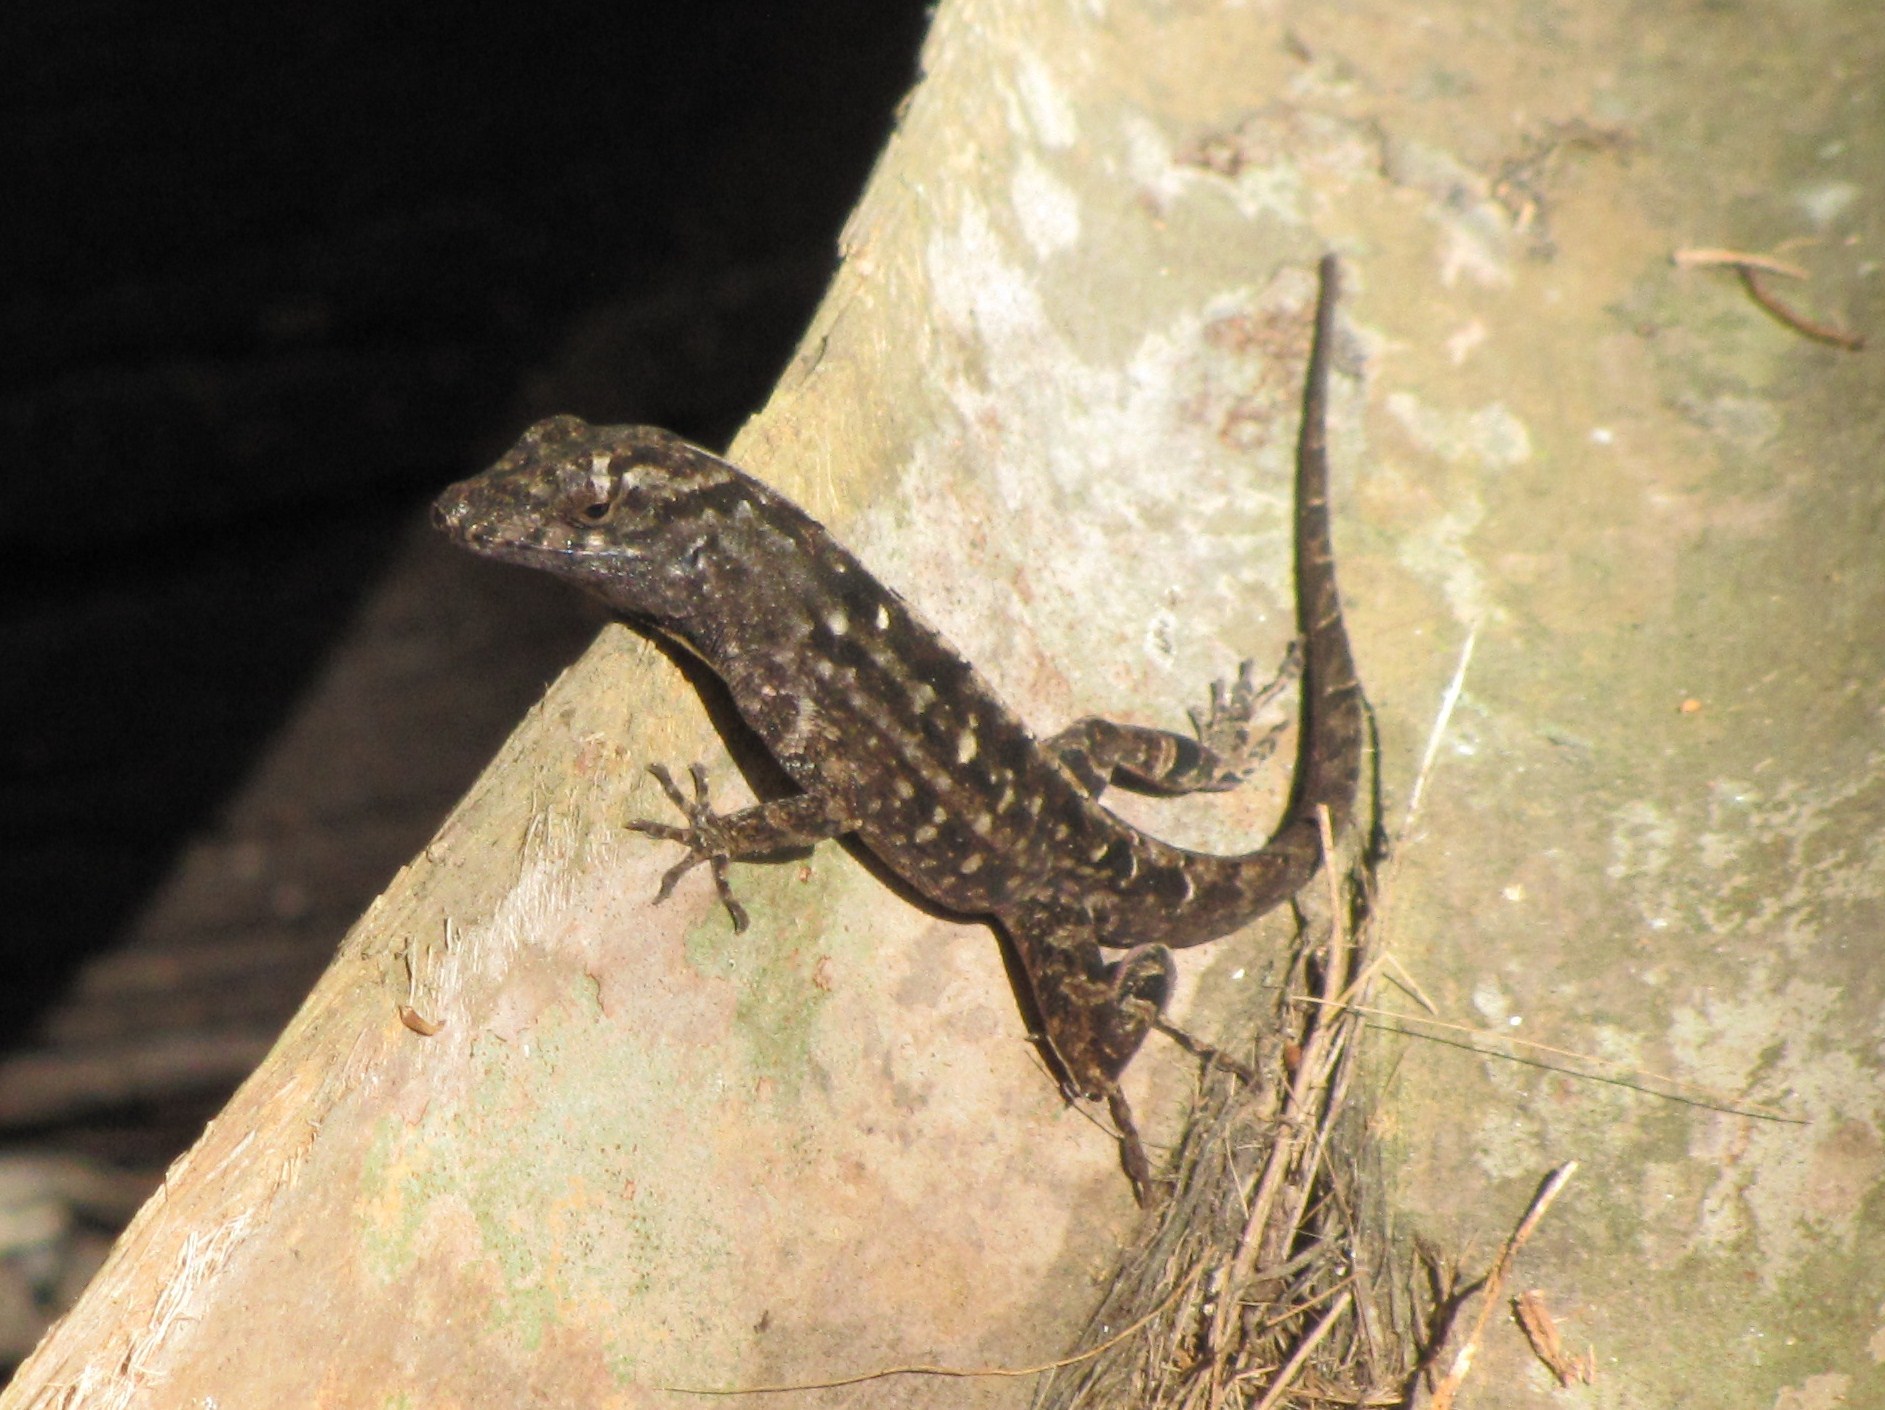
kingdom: Animalia
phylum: Chordata
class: Squamata
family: Dactyloidae
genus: Anolis
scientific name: Anolis sagrei
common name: Brown anole
